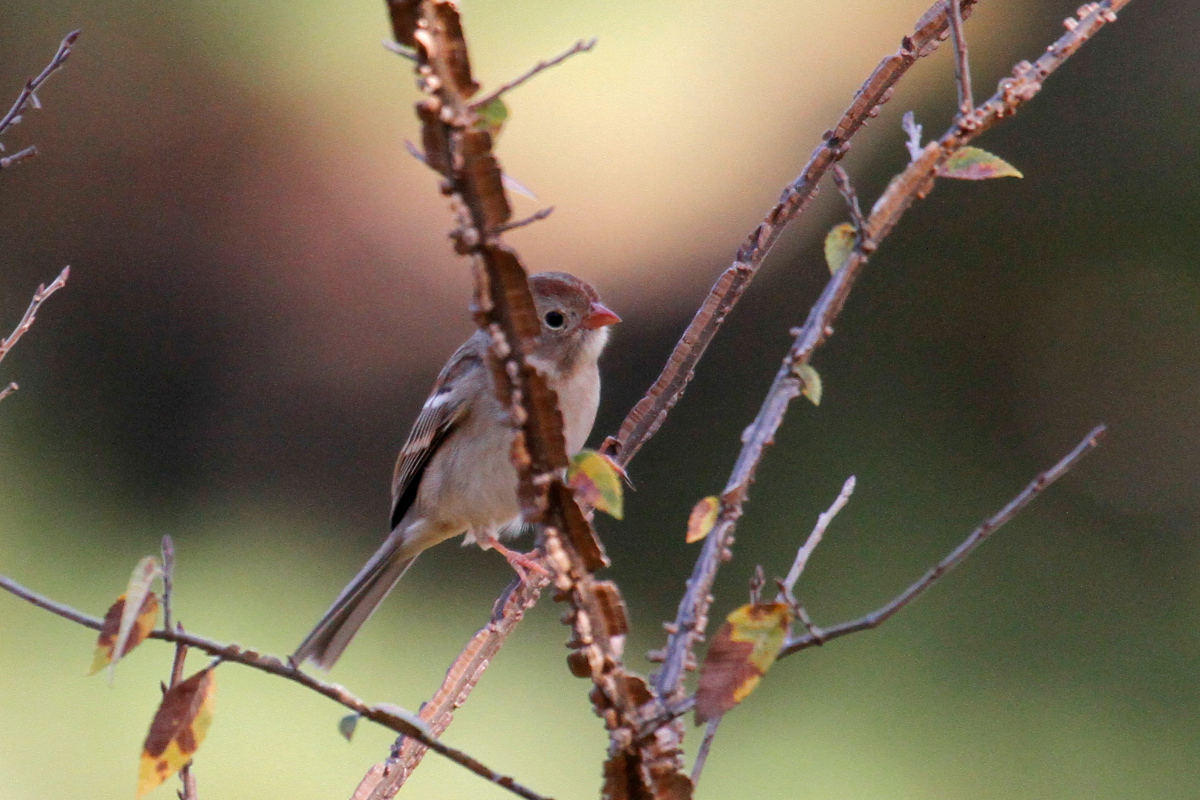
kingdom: Animalia
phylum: Chordata
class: Aves
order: Passeriformes
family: Passerellidae
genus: Spizella
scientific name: Spizella pusilla
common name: Field sparrow
